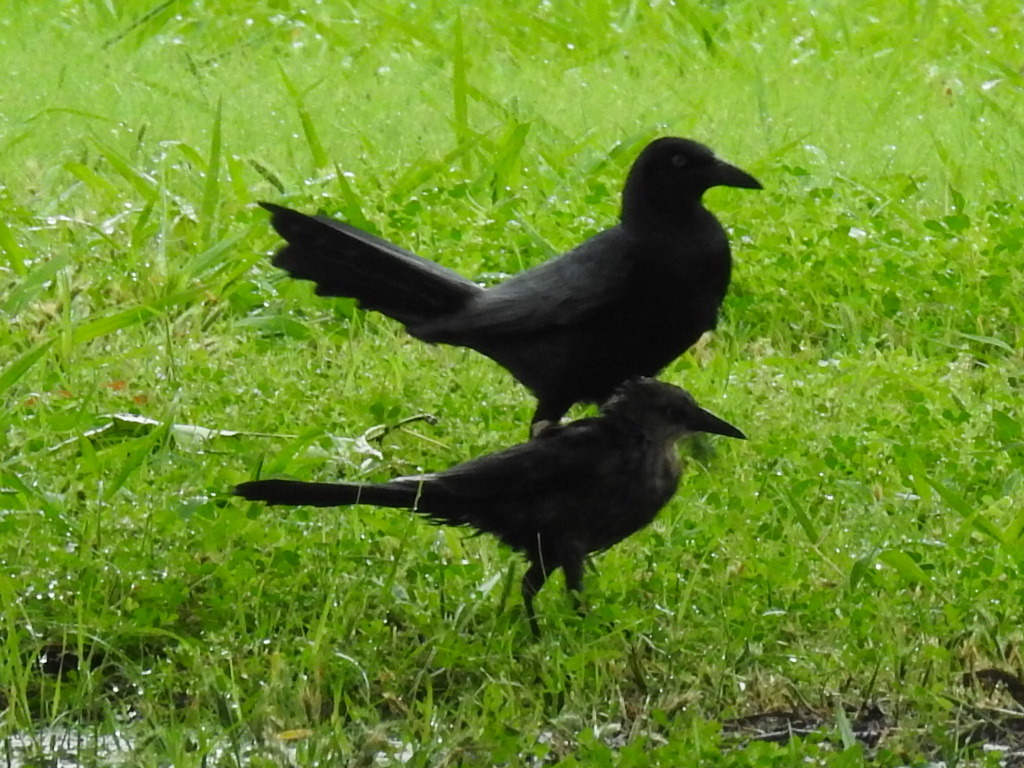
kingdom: Animalia
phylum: Chordata
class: Aves
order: Passeriformes
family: Icteridae
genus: Quiscalus
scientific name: Quiscalus mexicanus
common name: Great-tailed grackle
